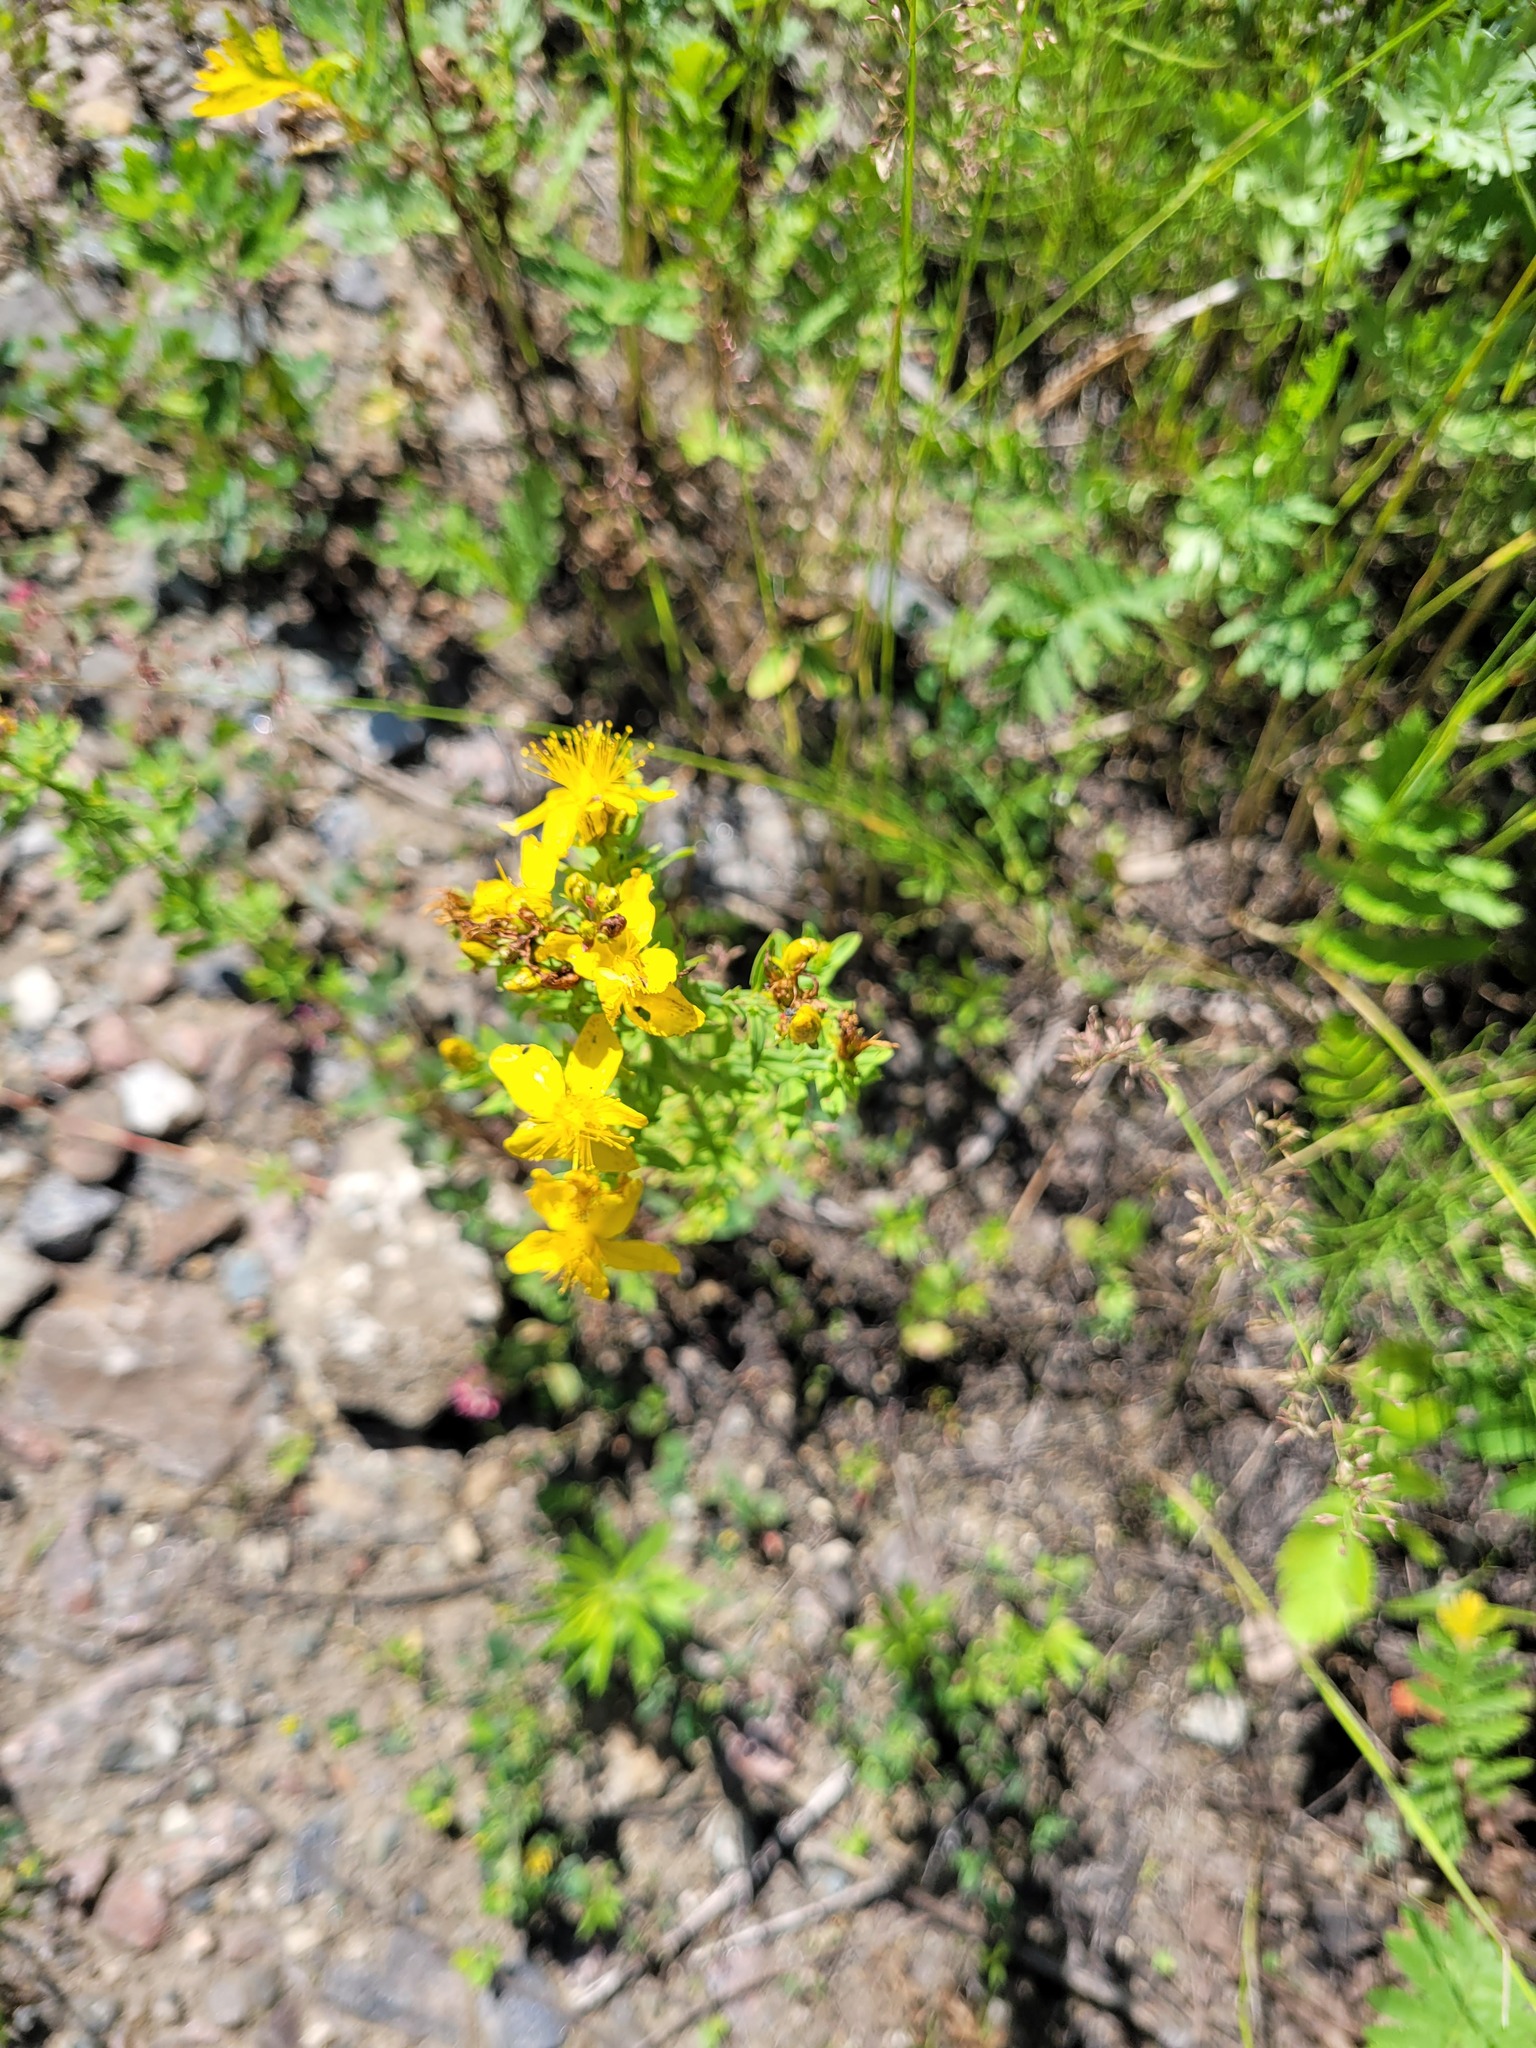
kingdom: Plantae
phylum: Tracheophyta
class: Magnoliopsida
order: Malpighiales
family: Hypericaceae
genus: Hypericum
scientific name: Hypericum perforatum
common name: Common st. johnswort
